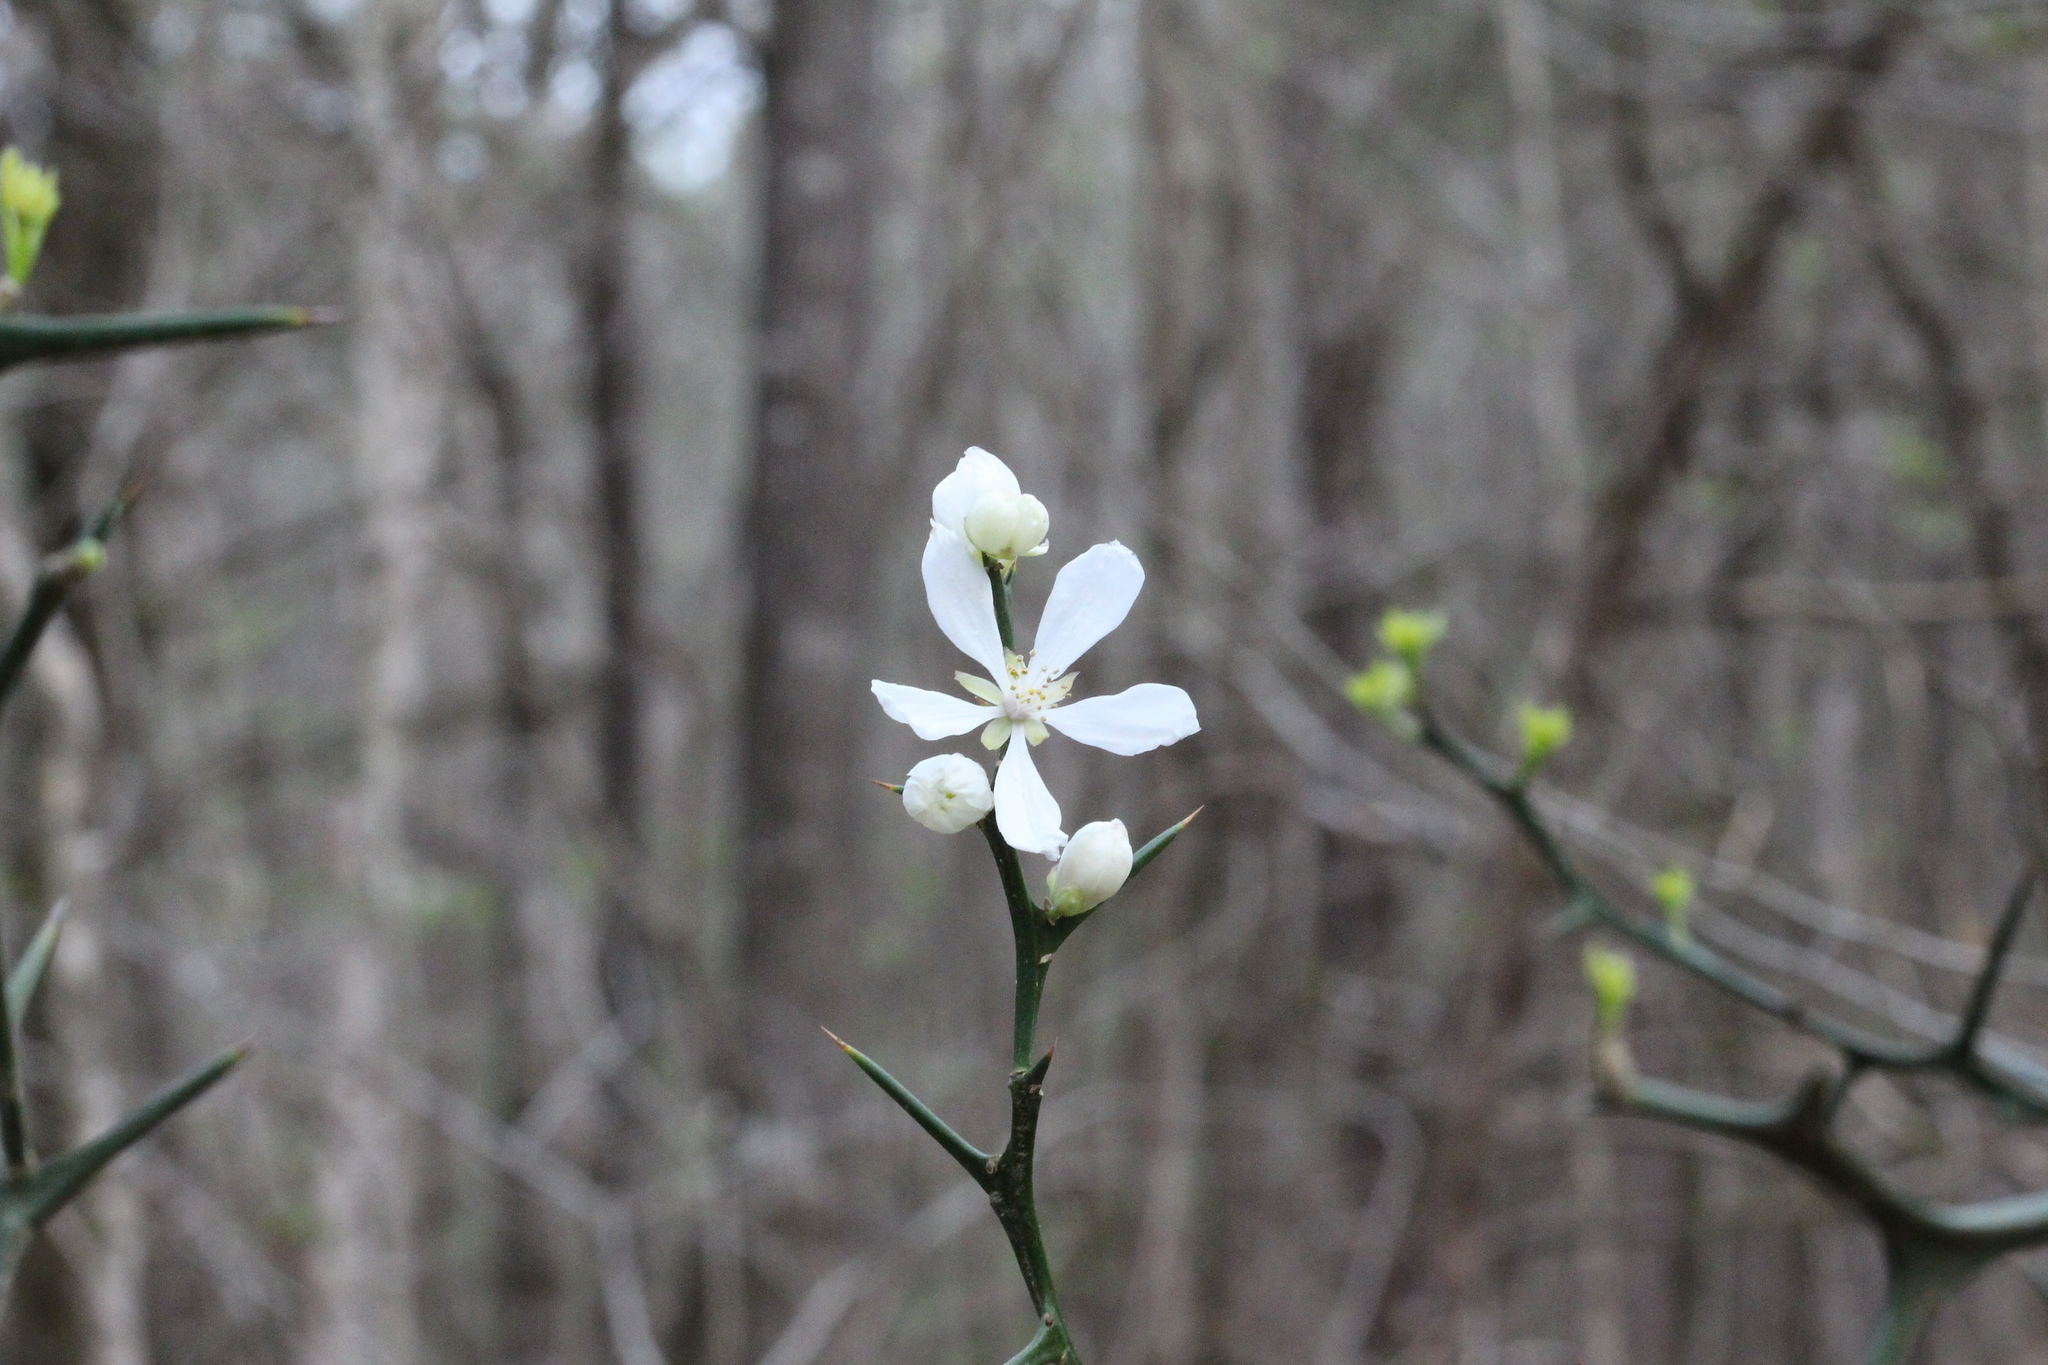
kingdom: Plantae
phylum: Tracheophyta
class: Magnoliopsida
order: Sapindales
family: Rutaceae
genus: Citrus
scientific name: Citrus trifoliata
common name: Japanese bitter-orange
